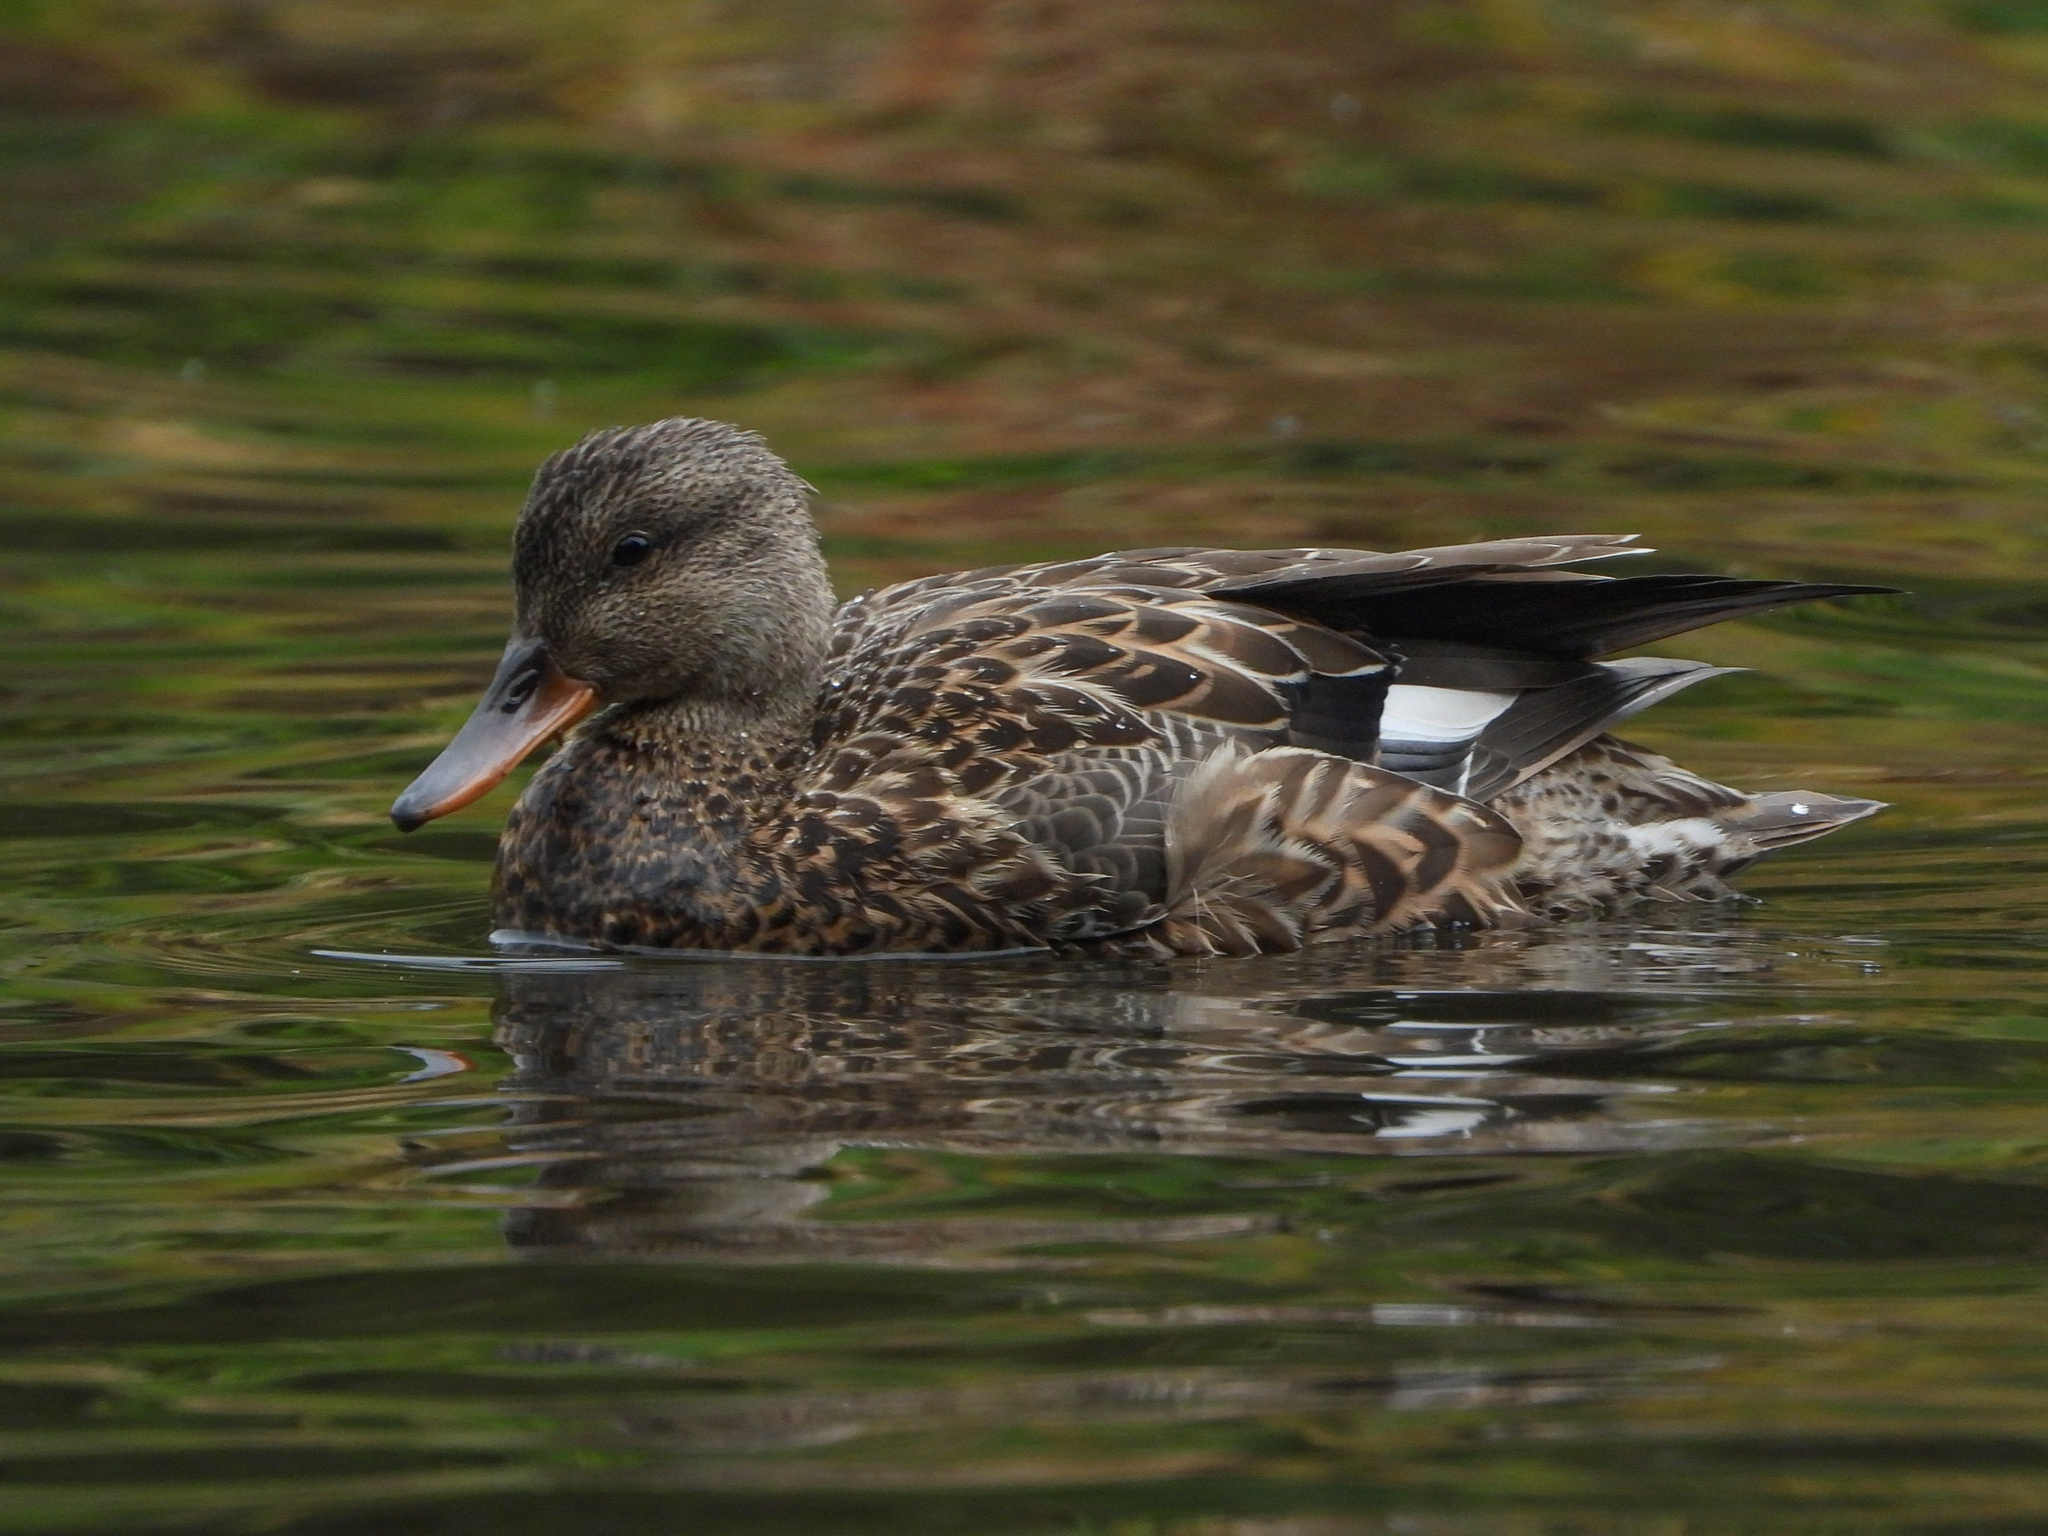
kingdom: Animalia
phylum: Chordata
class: Aves
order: Anseriformes
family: Anatidae
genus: Mareca
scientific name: Mareca strepera
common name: Gadwall
